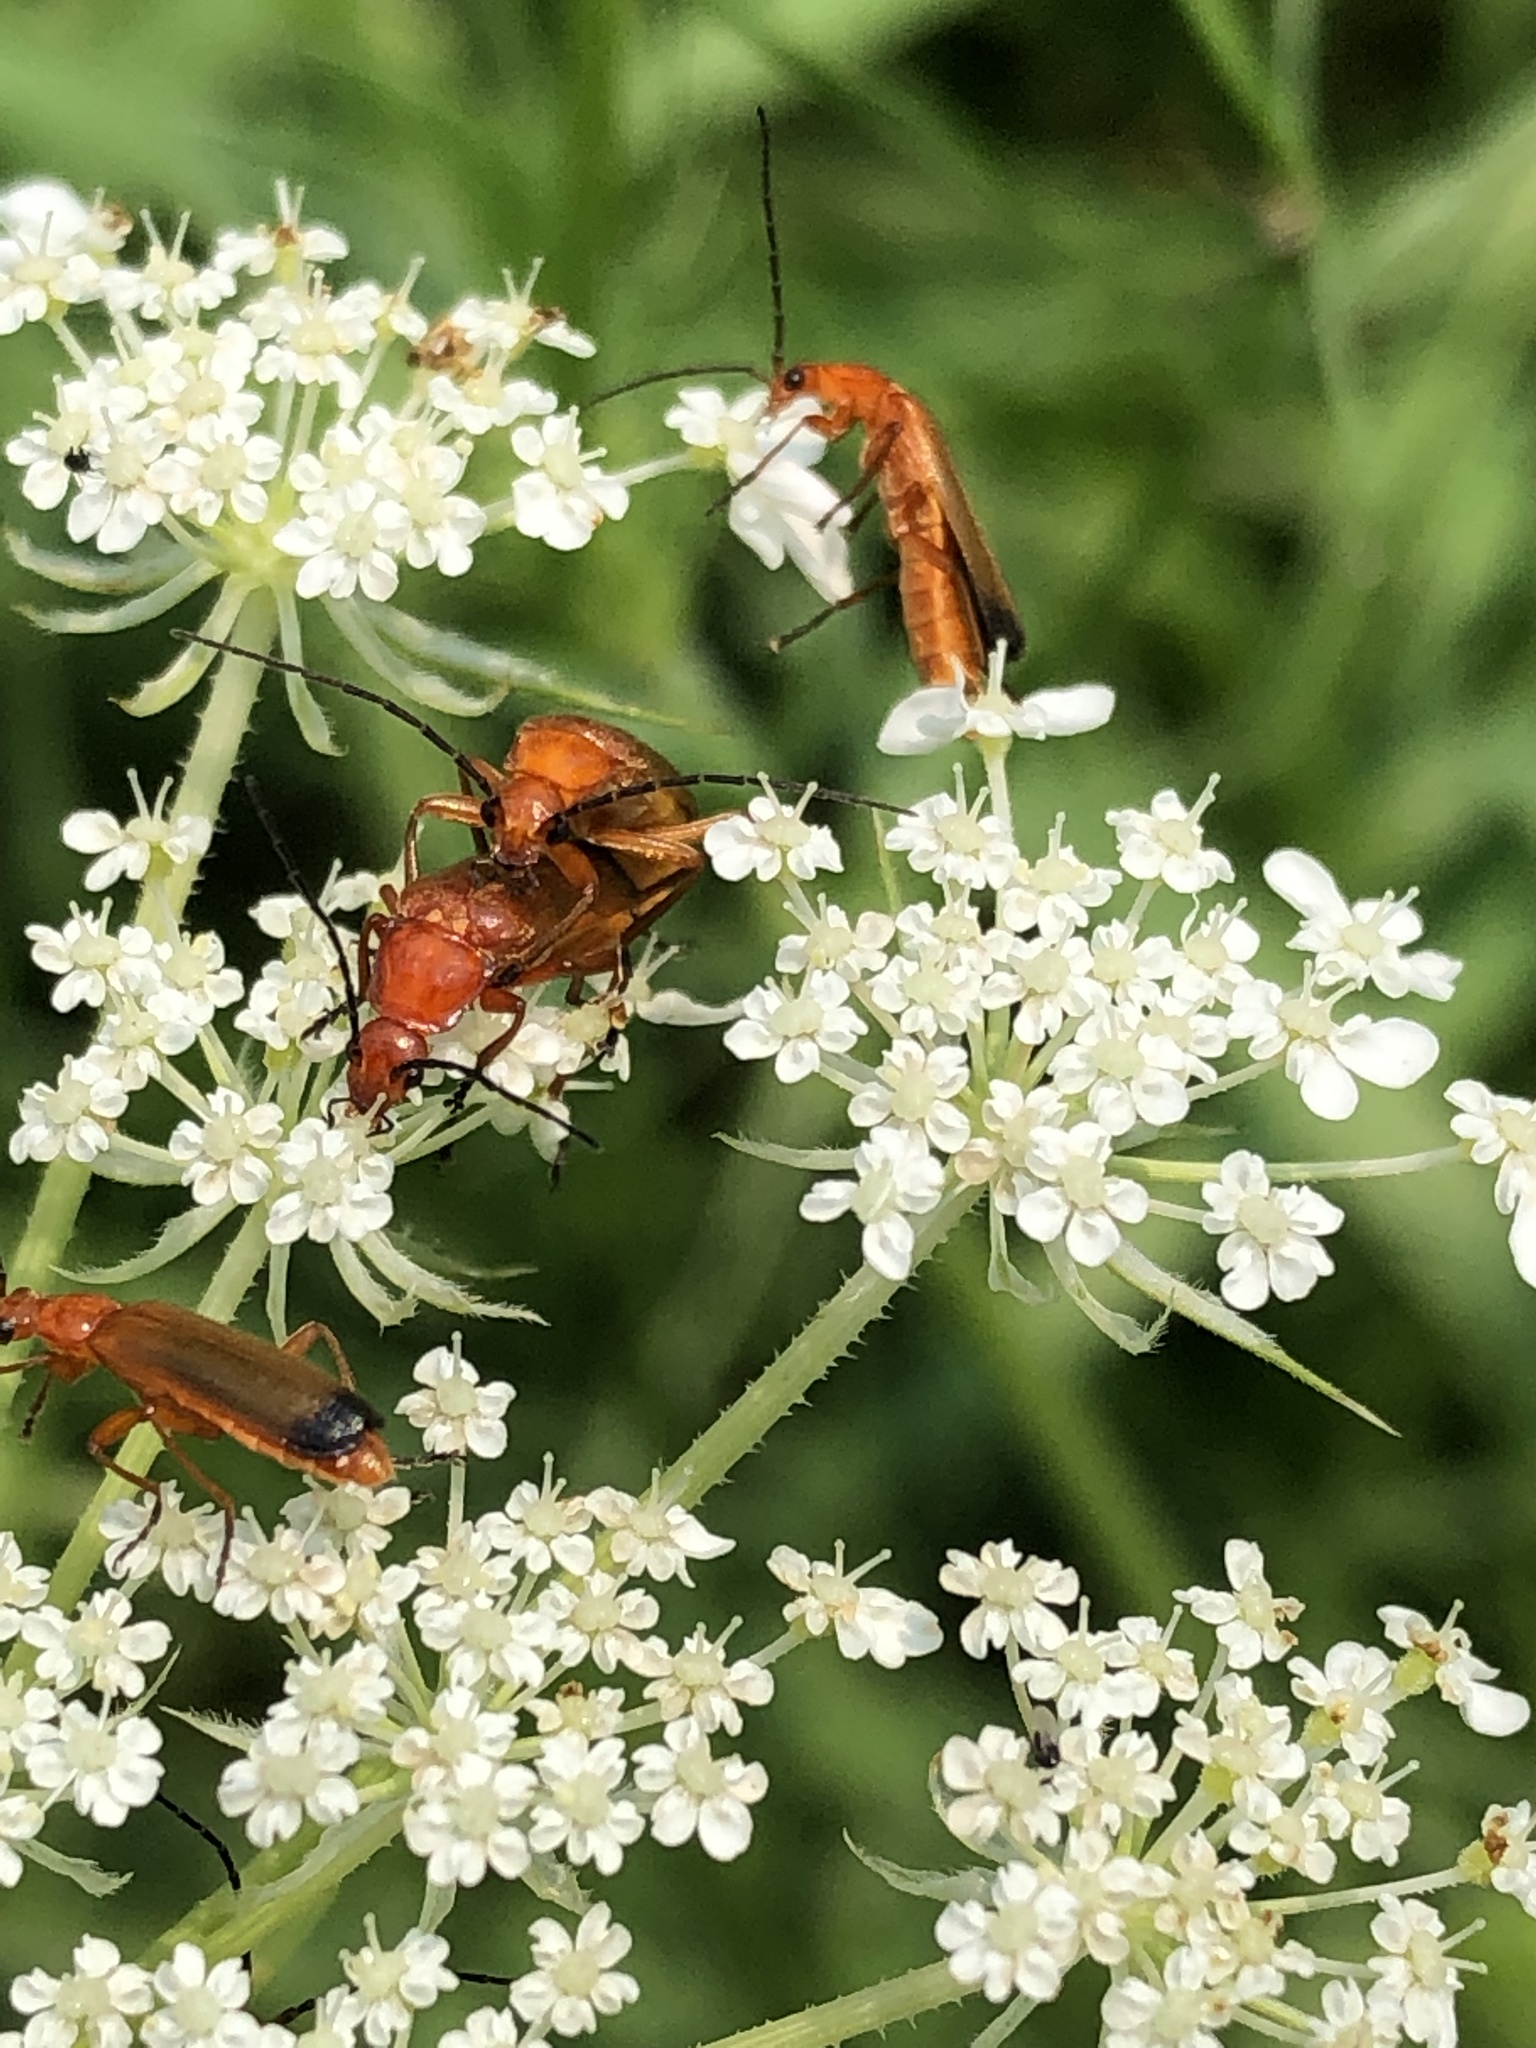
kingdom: Animalia
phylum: Arthropoda
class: Insecta
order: Coleoptera
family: Cantharidae
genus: Rhagonycha
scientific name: Rhagonycha fulva
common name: Common red soldier beetle
